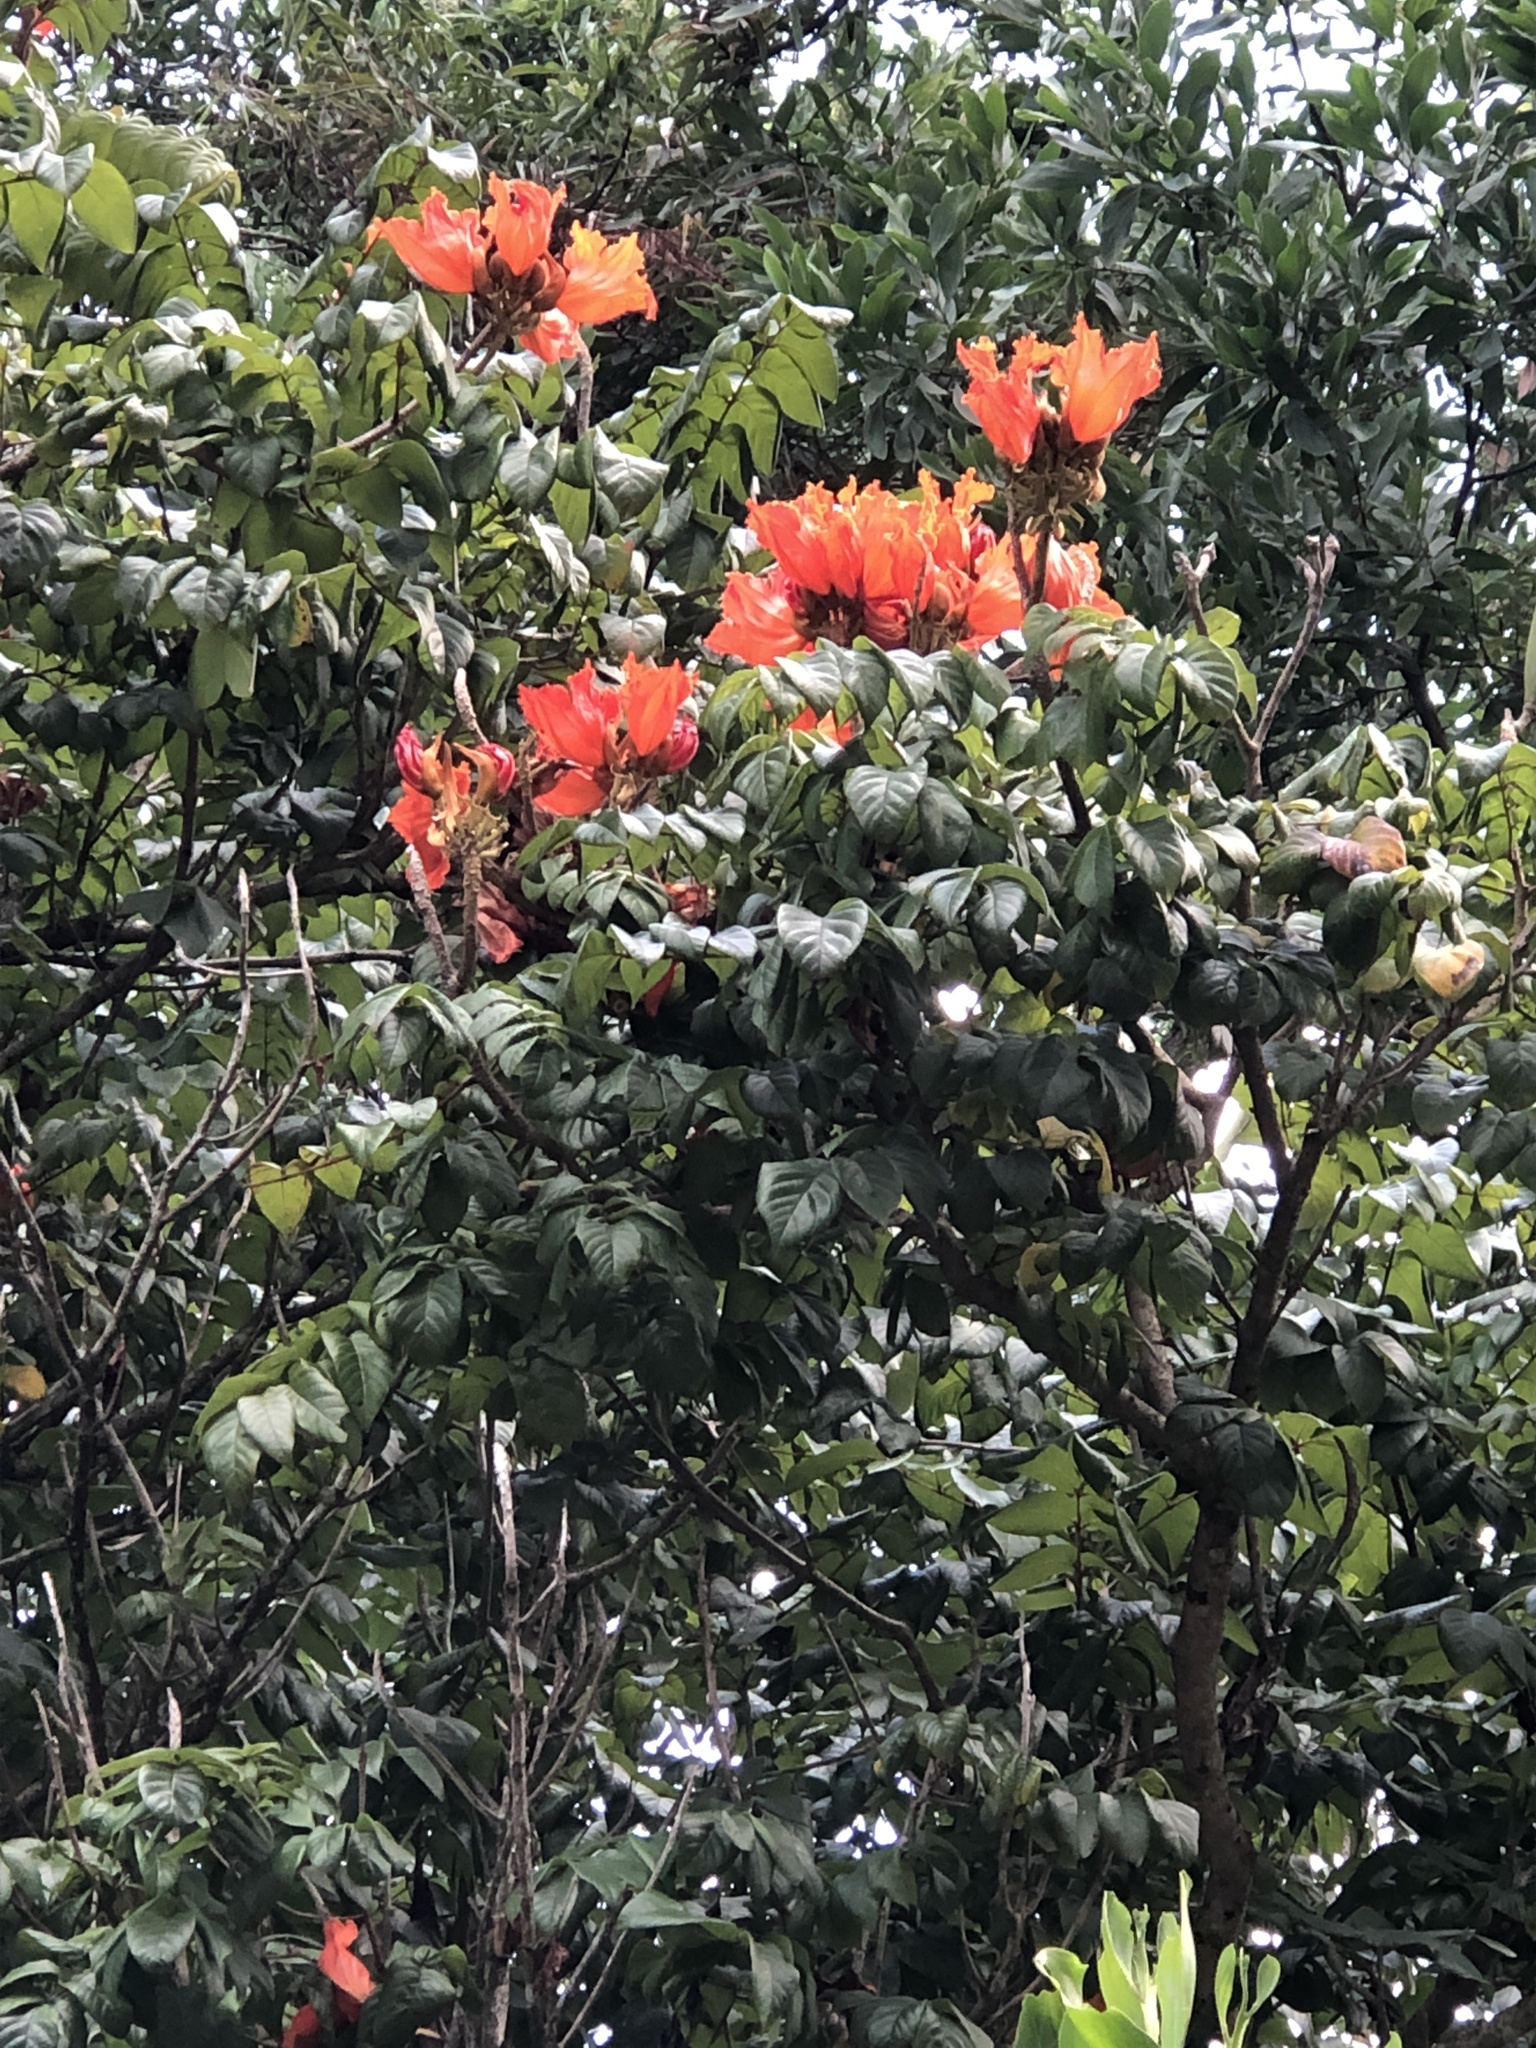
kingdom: Plantae
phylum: Tracheophyta
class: Magnoliopsida
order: Lamiales
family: Bignoniaceae
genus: Spathodea
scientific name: Spathodea campanulata
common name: African tuliptree
